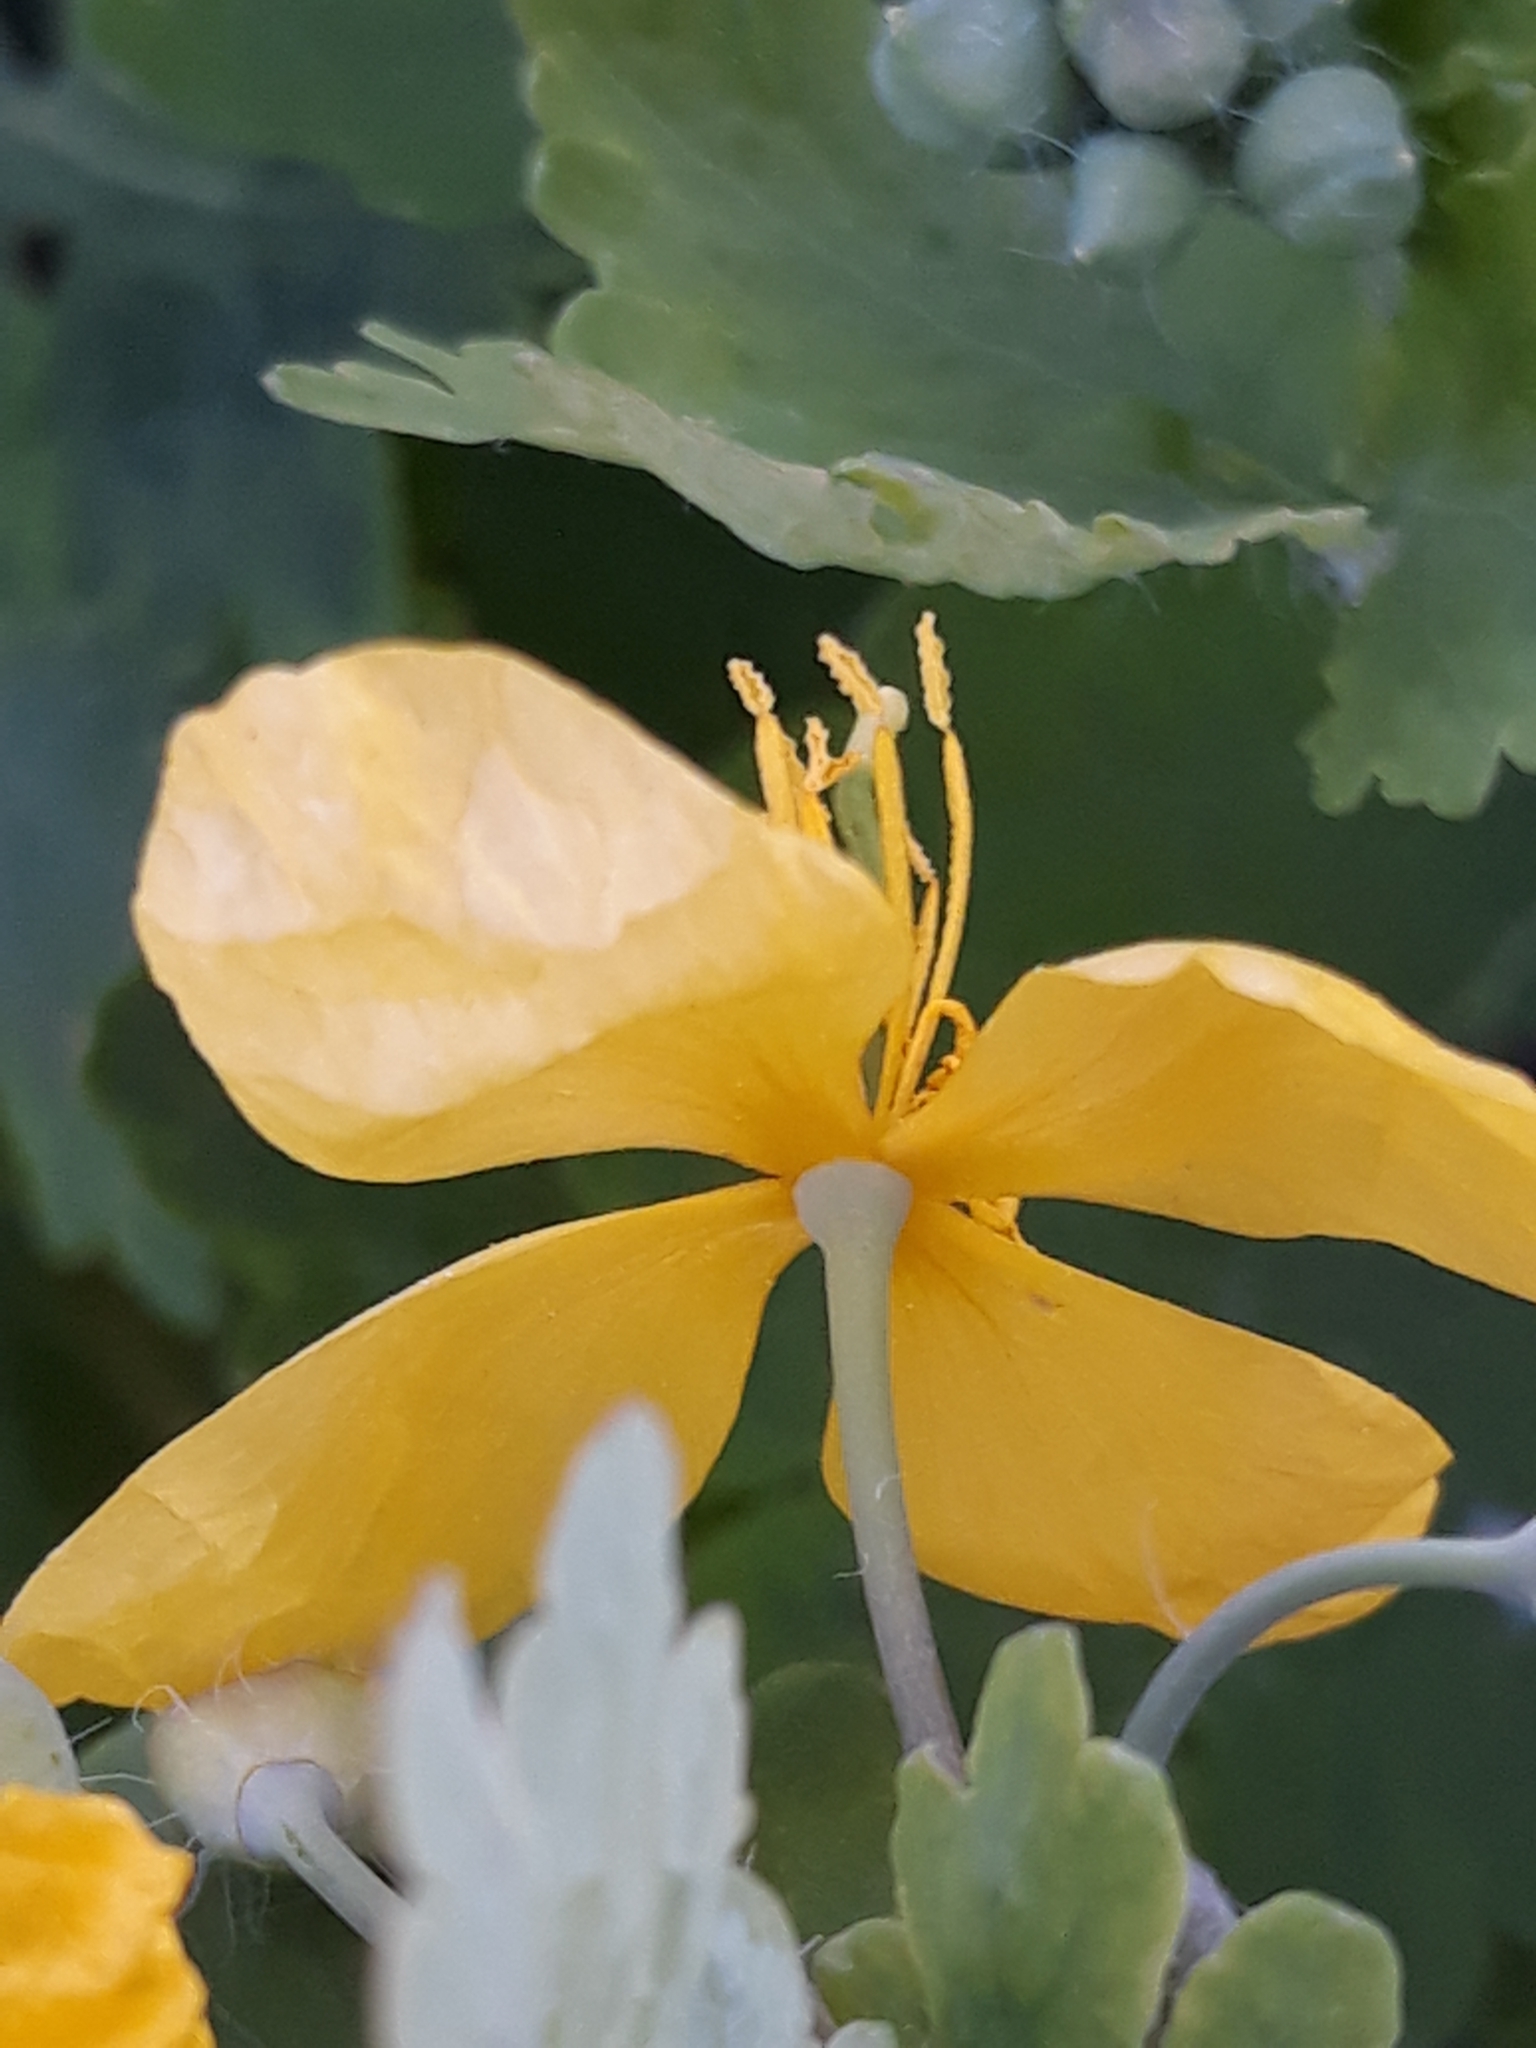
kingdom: Plantae
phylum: Tracheophyta
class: Magnoliopsida
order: Ranunculales
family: Papaveraceae
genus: Chelidonium
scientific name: Chelidonium majus
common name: Greater celandine
